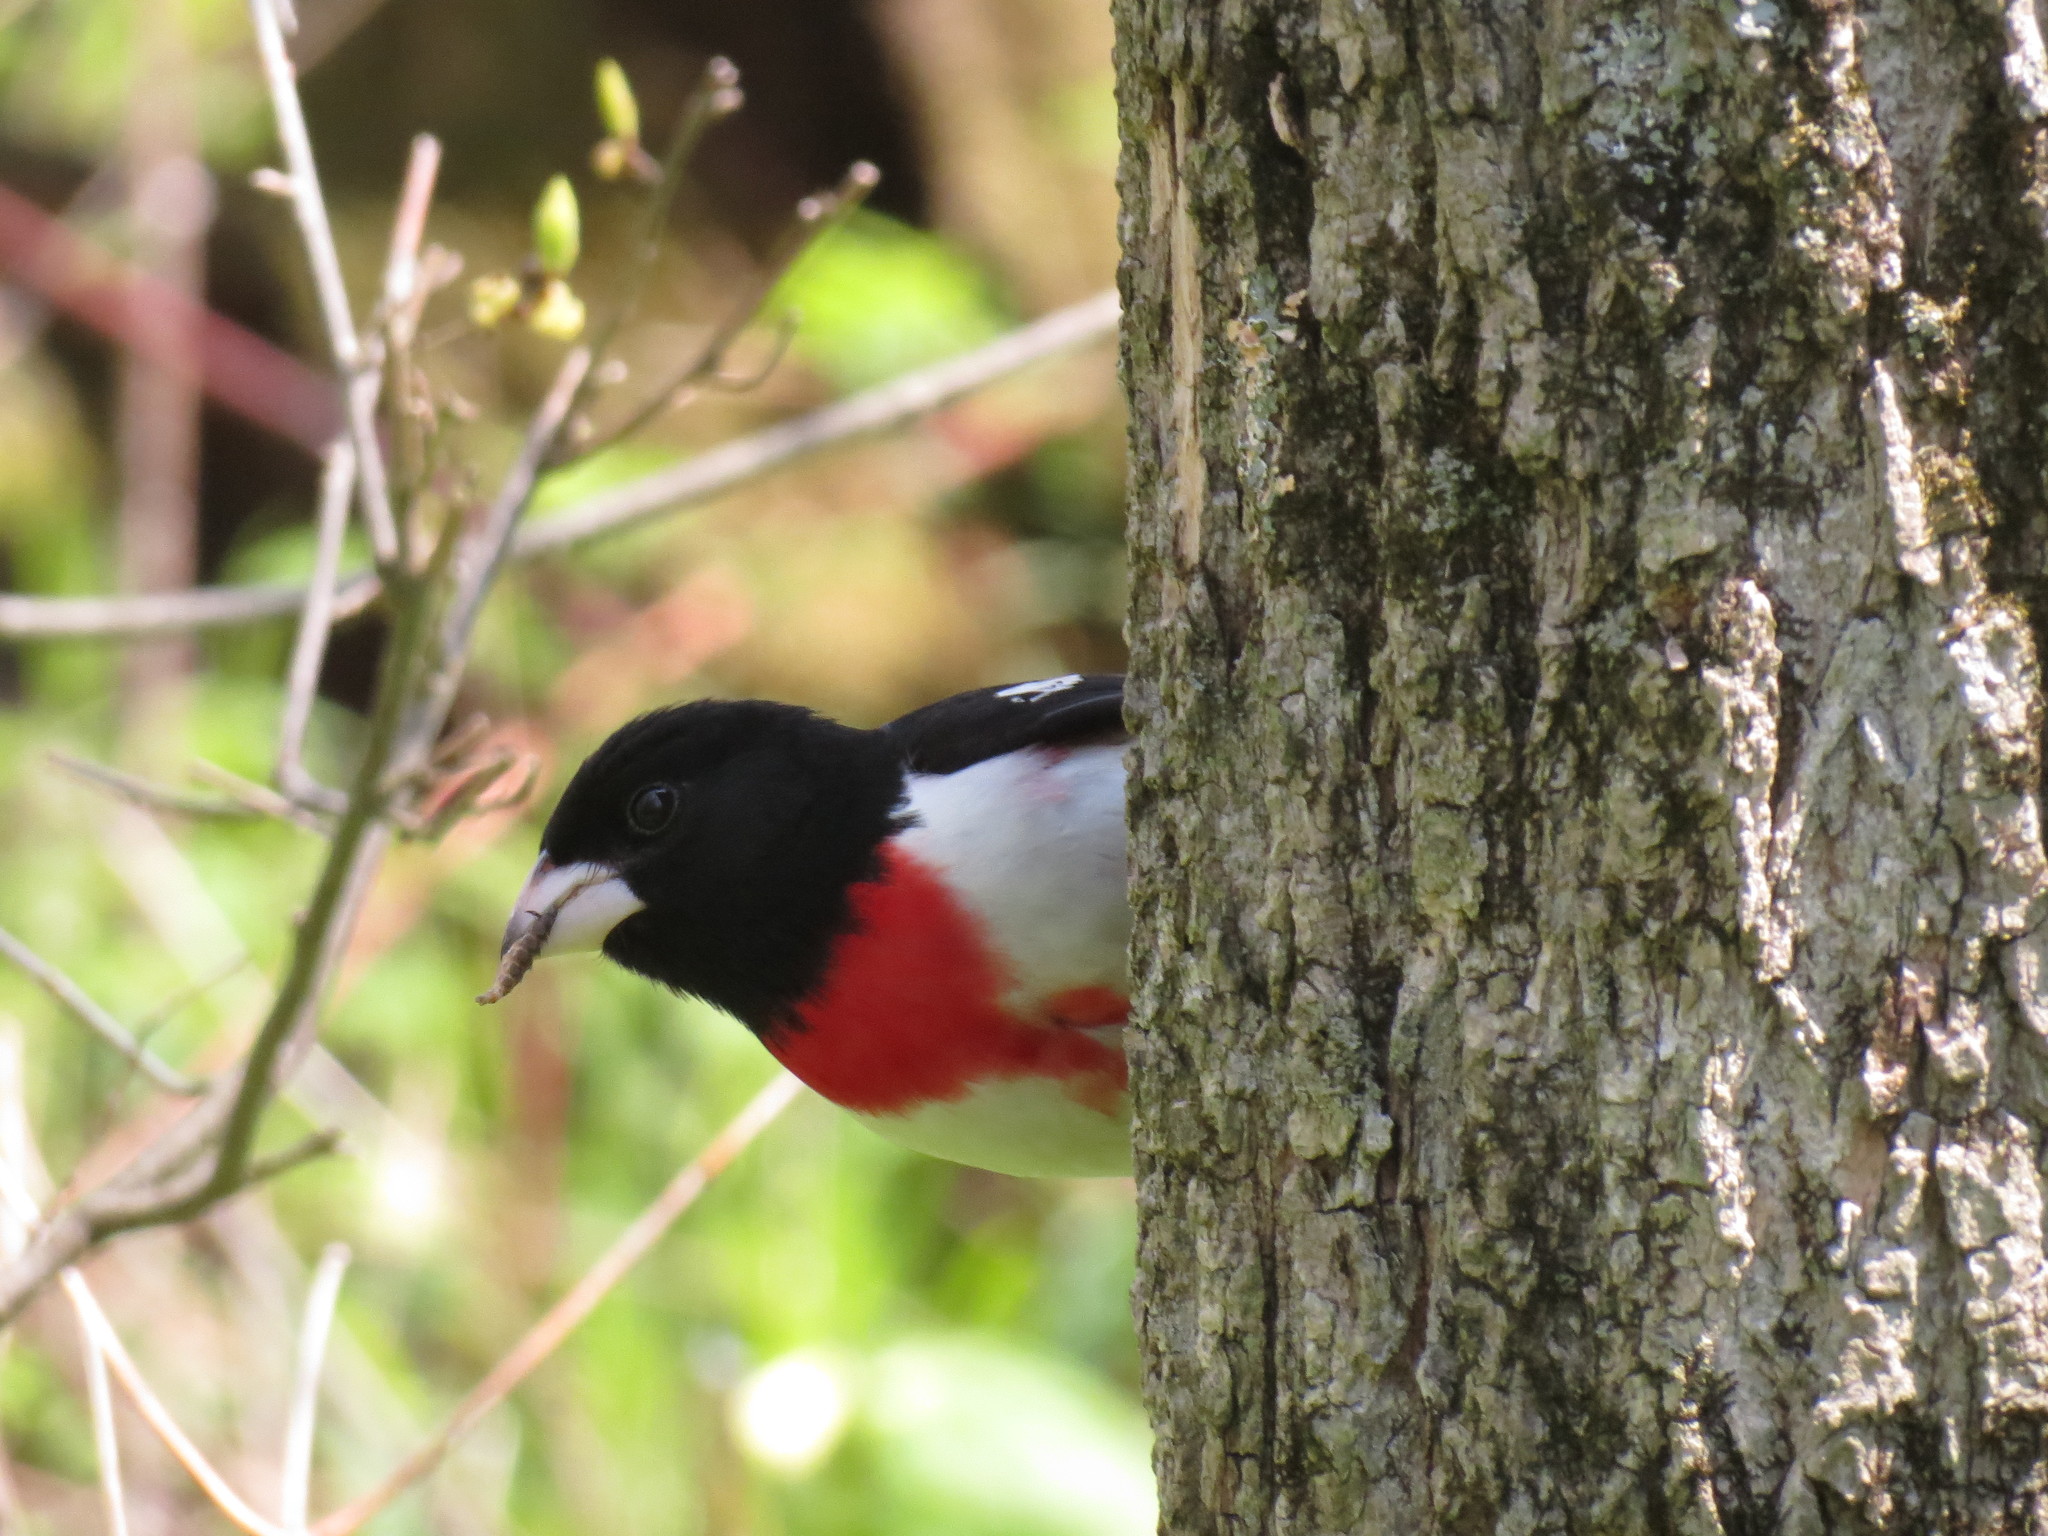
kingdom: Animalia
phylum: Chordata
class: Aves
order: Passeriformes
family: Cardinalidae
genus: Pheucticus
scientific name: Pheucticus ludovicianus
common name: Rose-breasted grosbeak
